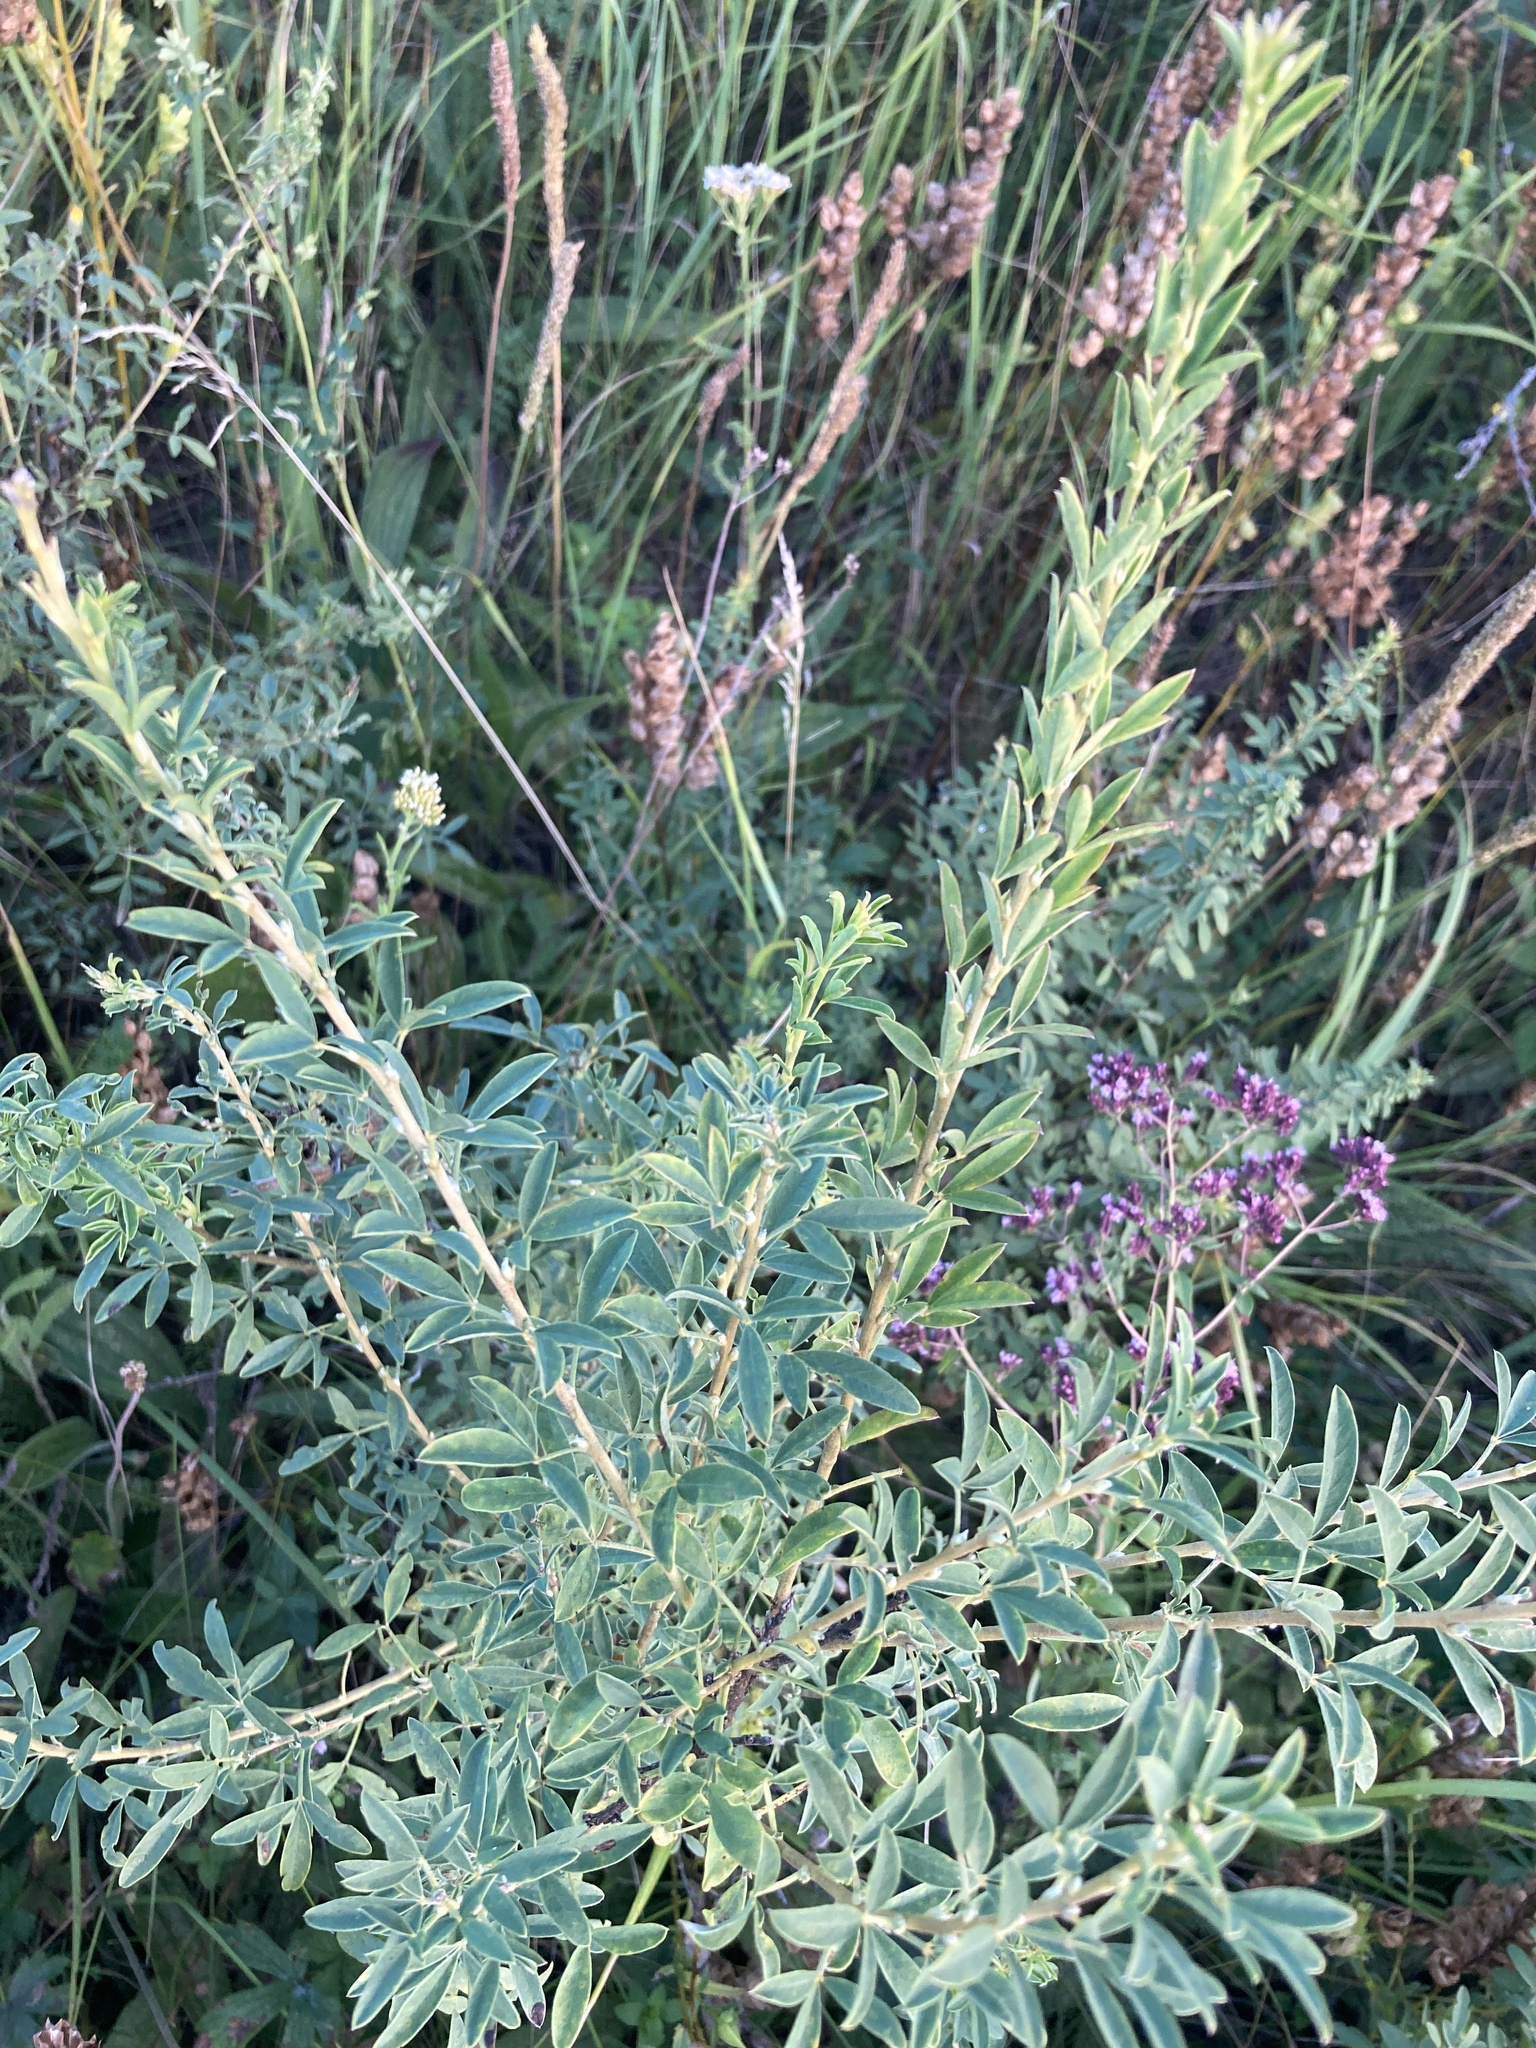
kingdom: Plantae
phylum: Tracheophyta
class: Magnoliopsida
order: Fabales
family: Fabaceae
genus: Chamaecytisus
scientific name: Chamaecytisus ruthenicus
